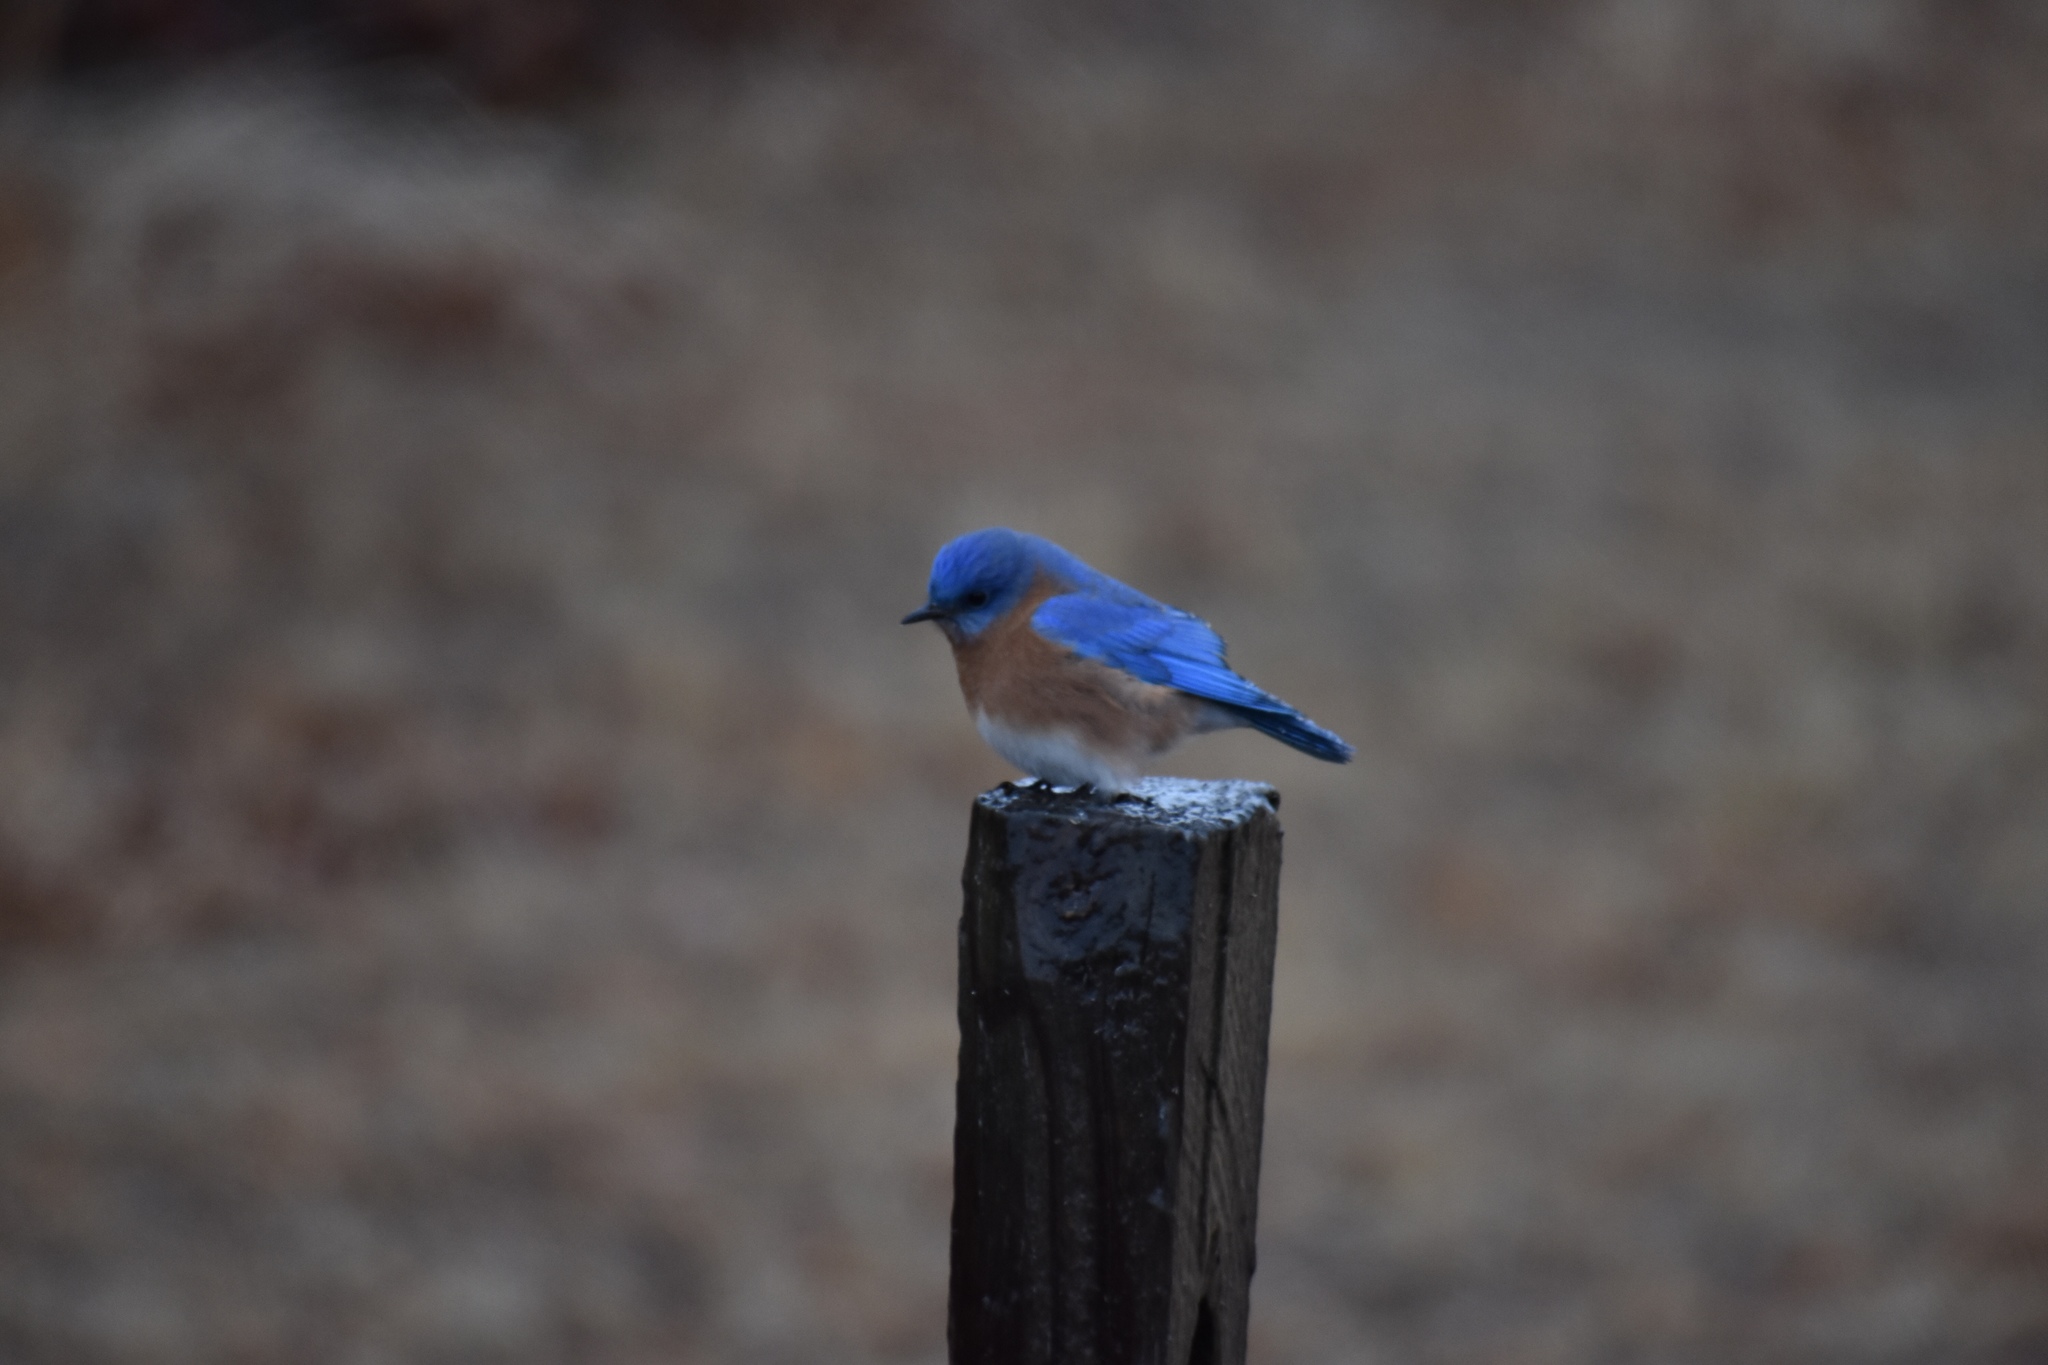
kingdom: Animalia
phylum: Chordata
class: Aves
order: Passeriformes
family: Turdidae
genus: Sialia
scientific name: Sialia sialis
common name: Eastern bluebird
